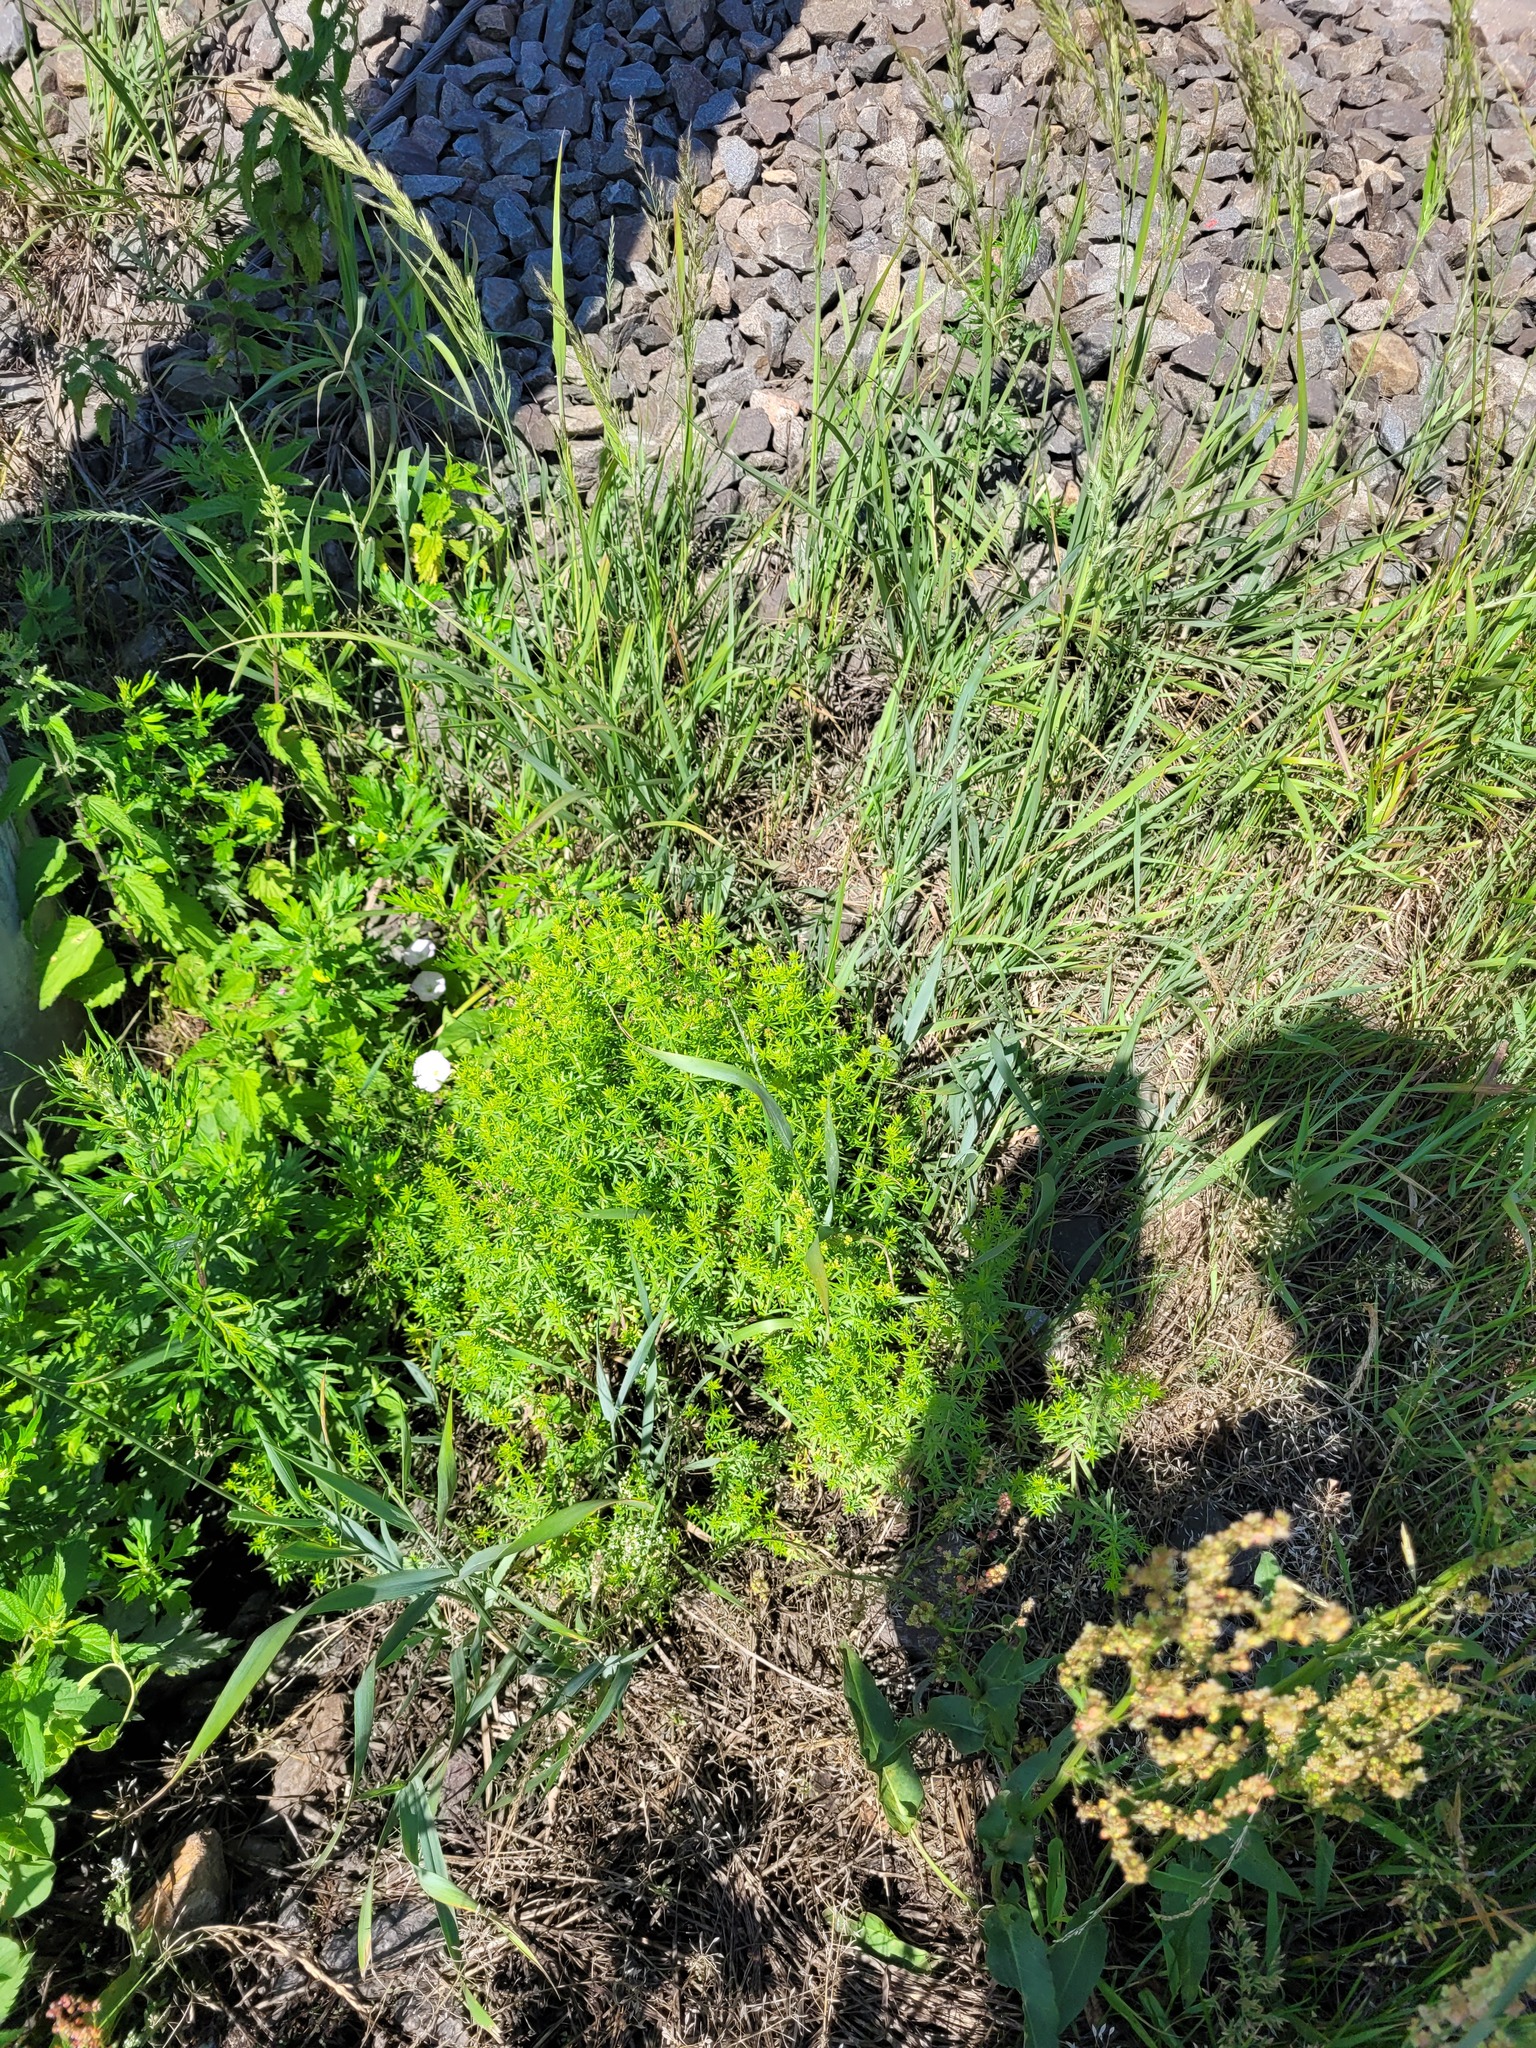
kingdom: Plantae
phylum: Tracheophyta
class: Magnoliopsida
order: Gentianales
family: Rubiaceae
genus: Galium
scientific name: Galium mollugo
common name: Hedge bedstraw
